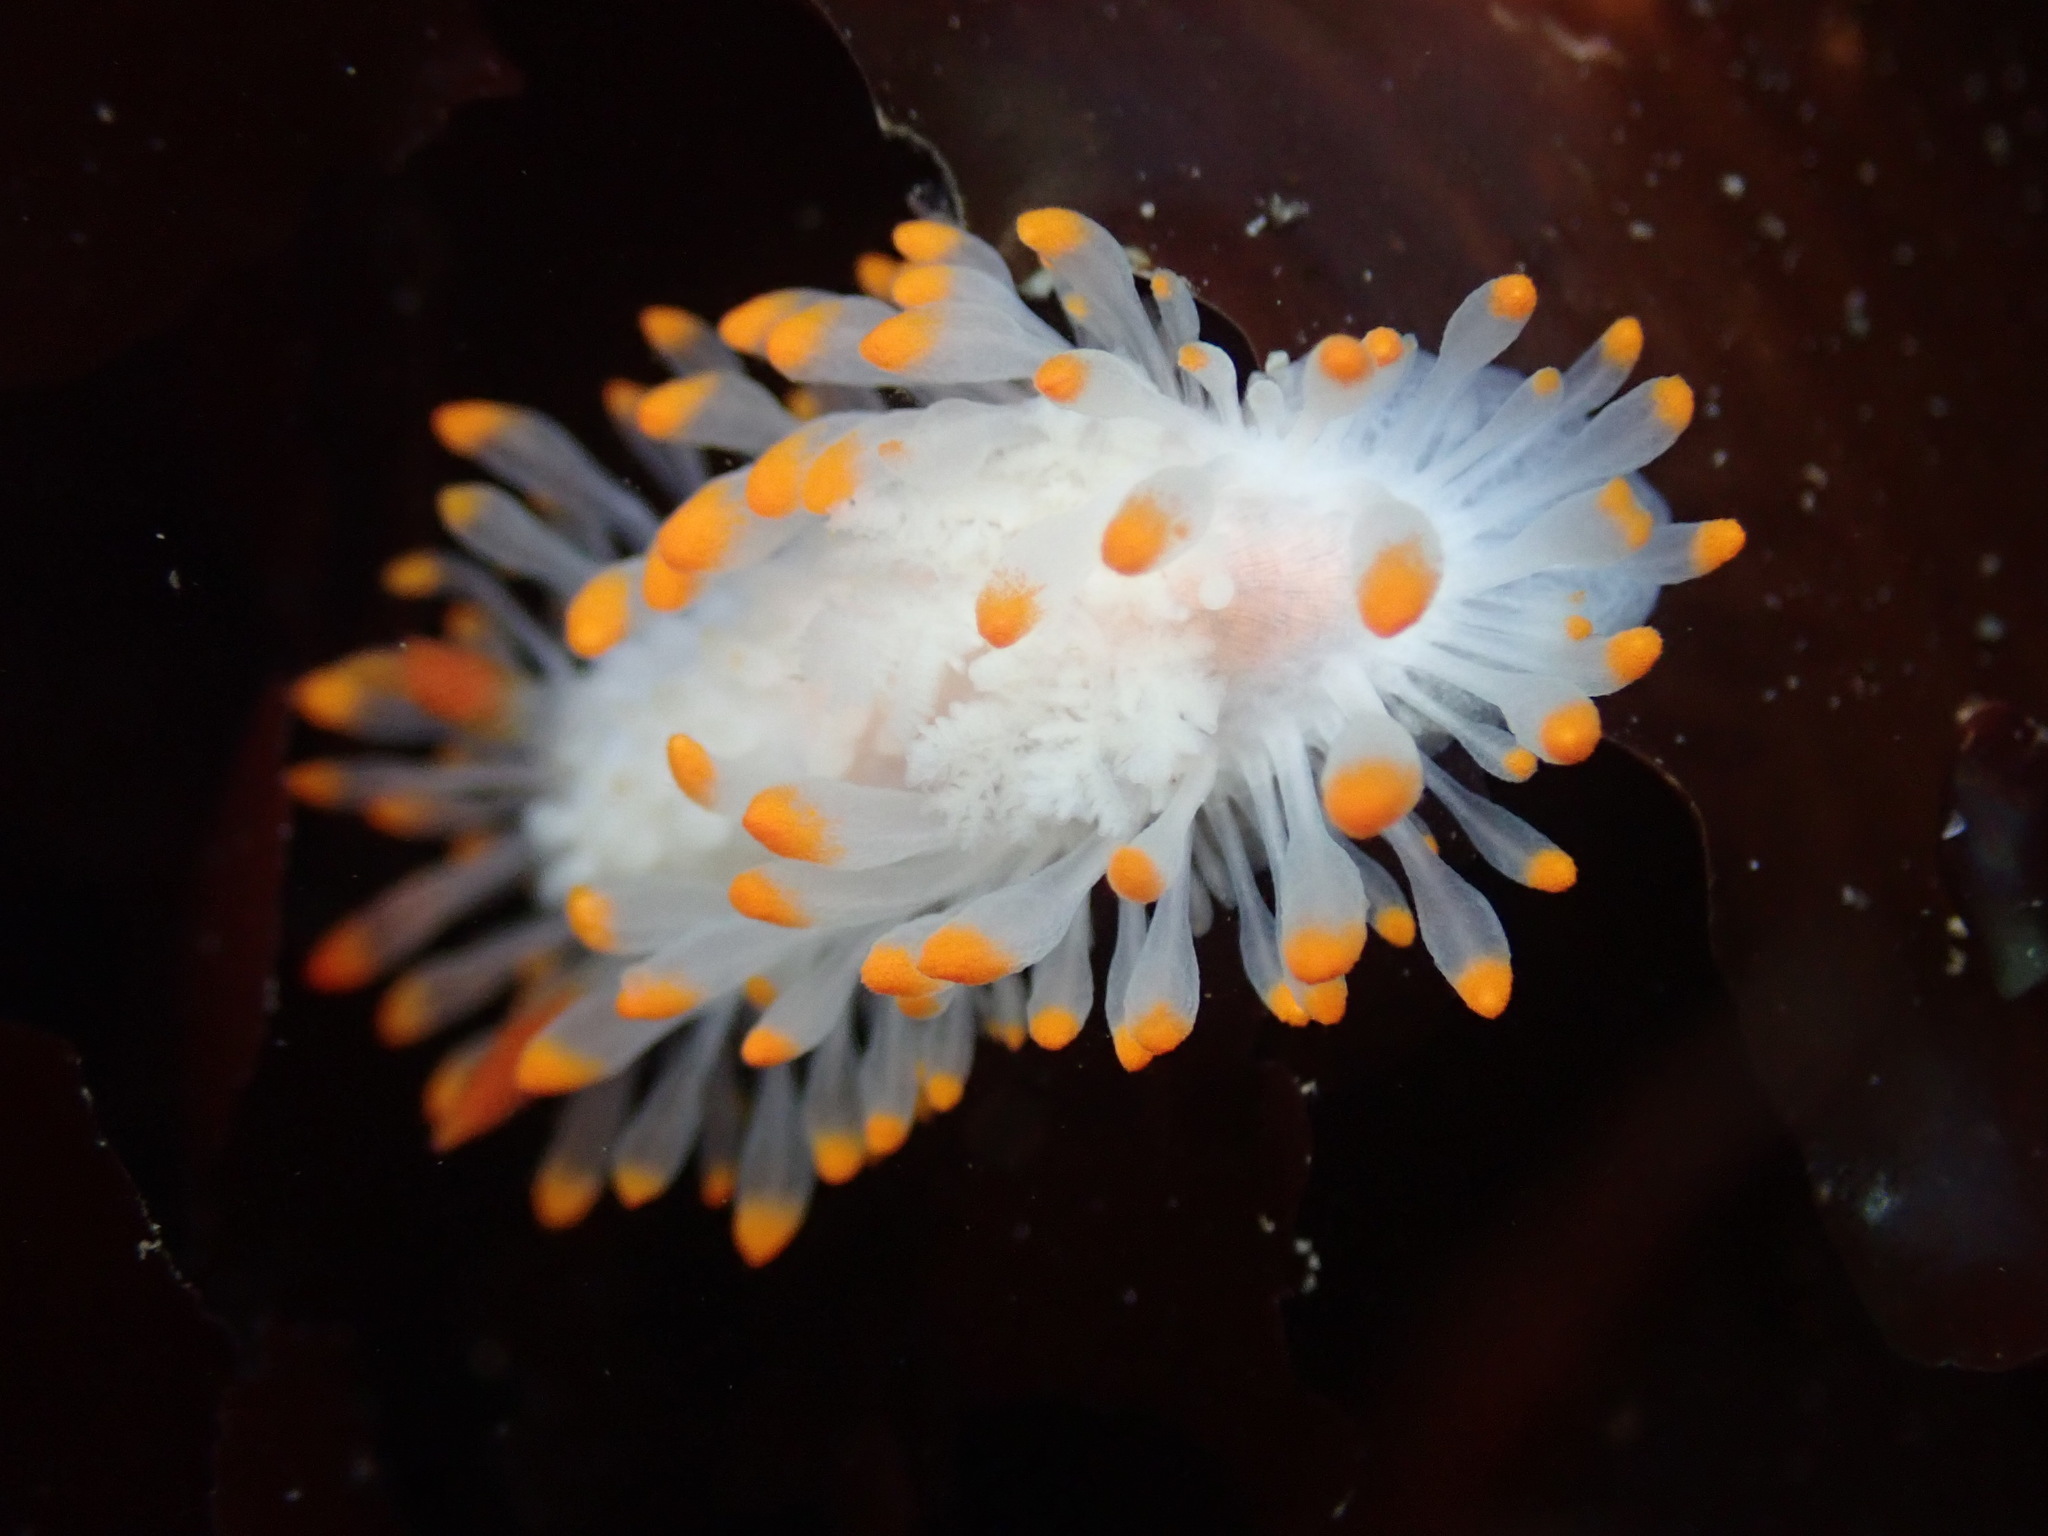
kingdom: Animalia
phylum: Mollusca
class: Gastropoda
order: Nudibranchia
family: Polyceridae
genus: Limacia
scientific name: Limacia cockerelli
